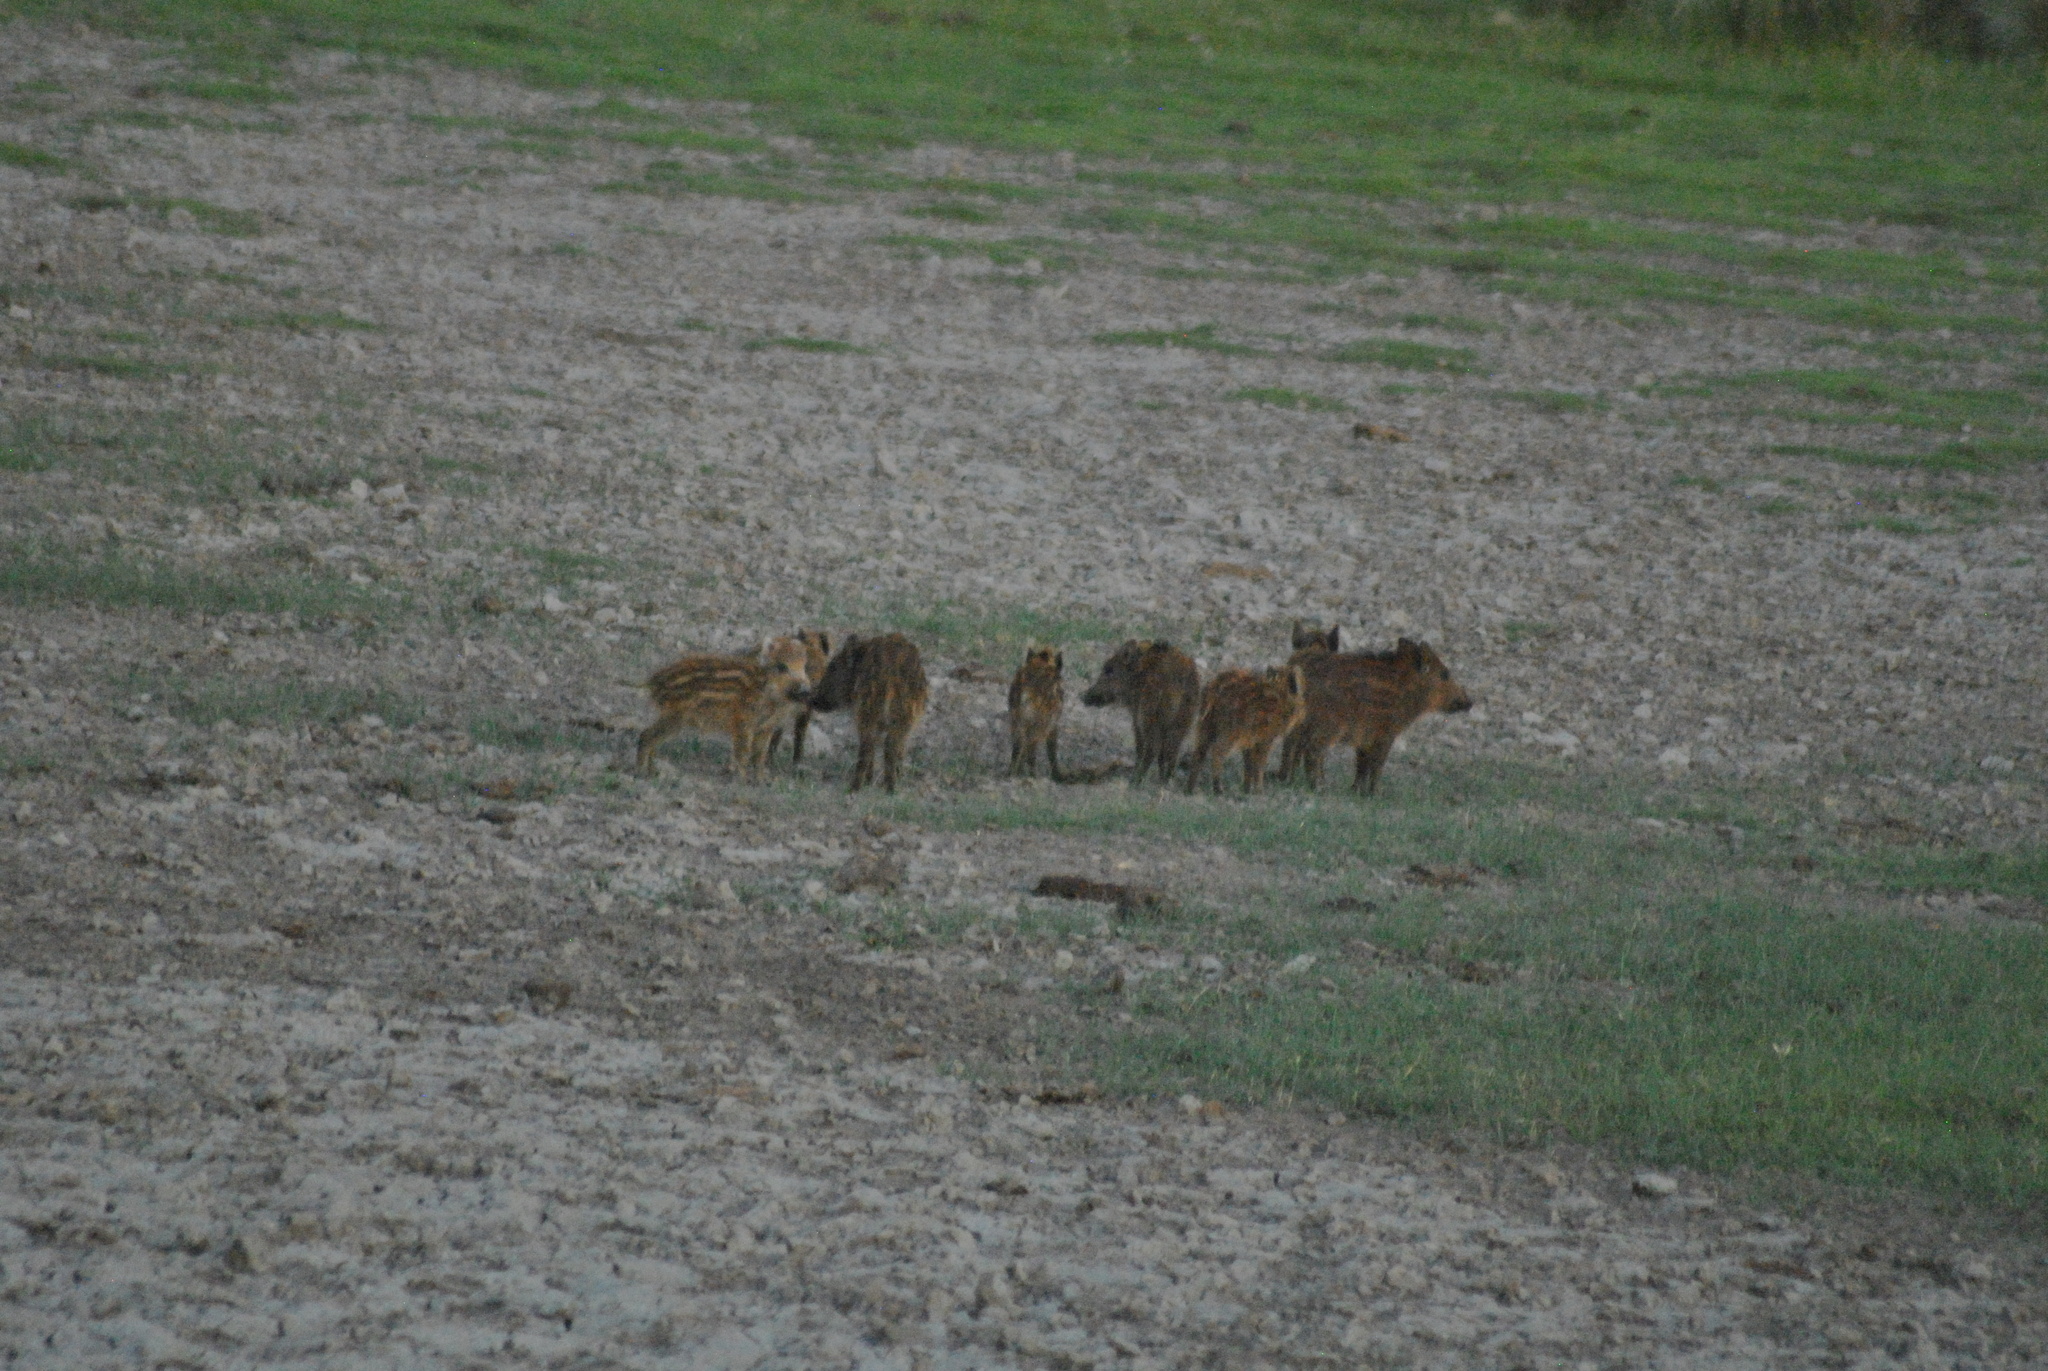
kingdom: Animalia
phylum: Chordata
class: Mammalia
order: Artiodactyla
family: Suidae
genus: Sus
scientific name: Sus scrofa
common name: Wild boar
